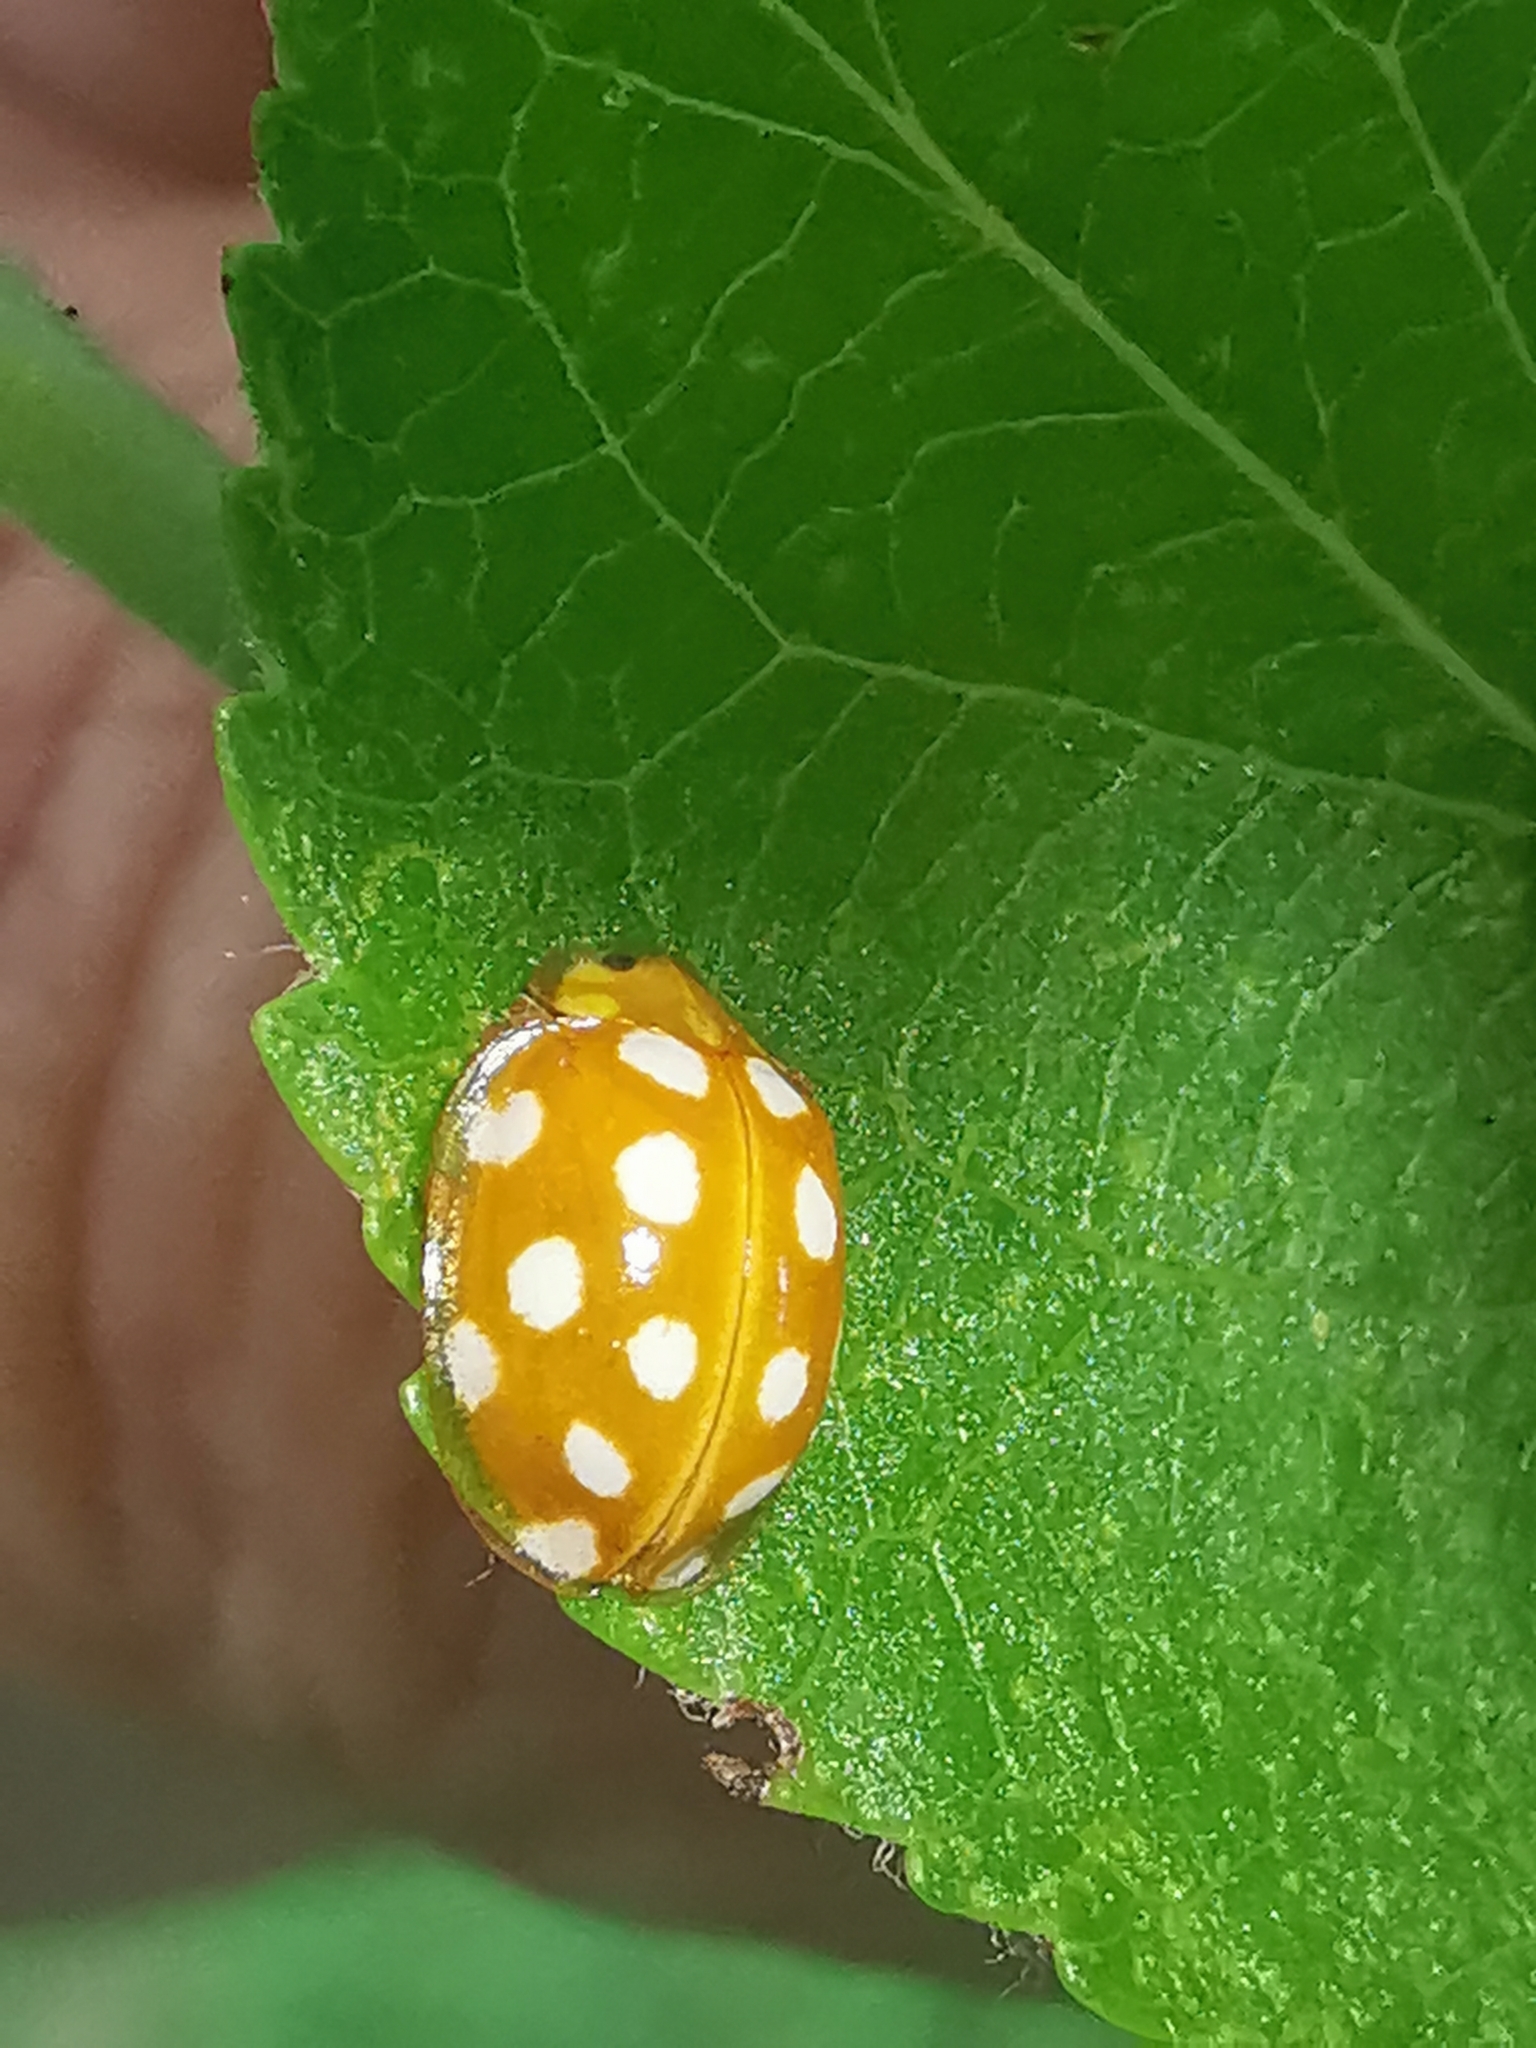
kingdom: Animalia
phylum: Arthropoda
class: Insecta
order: Coleoptera
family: Coccinellidae
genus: Halyzia
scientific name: Halyzia sedecimguttata
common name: Orange ladybird
